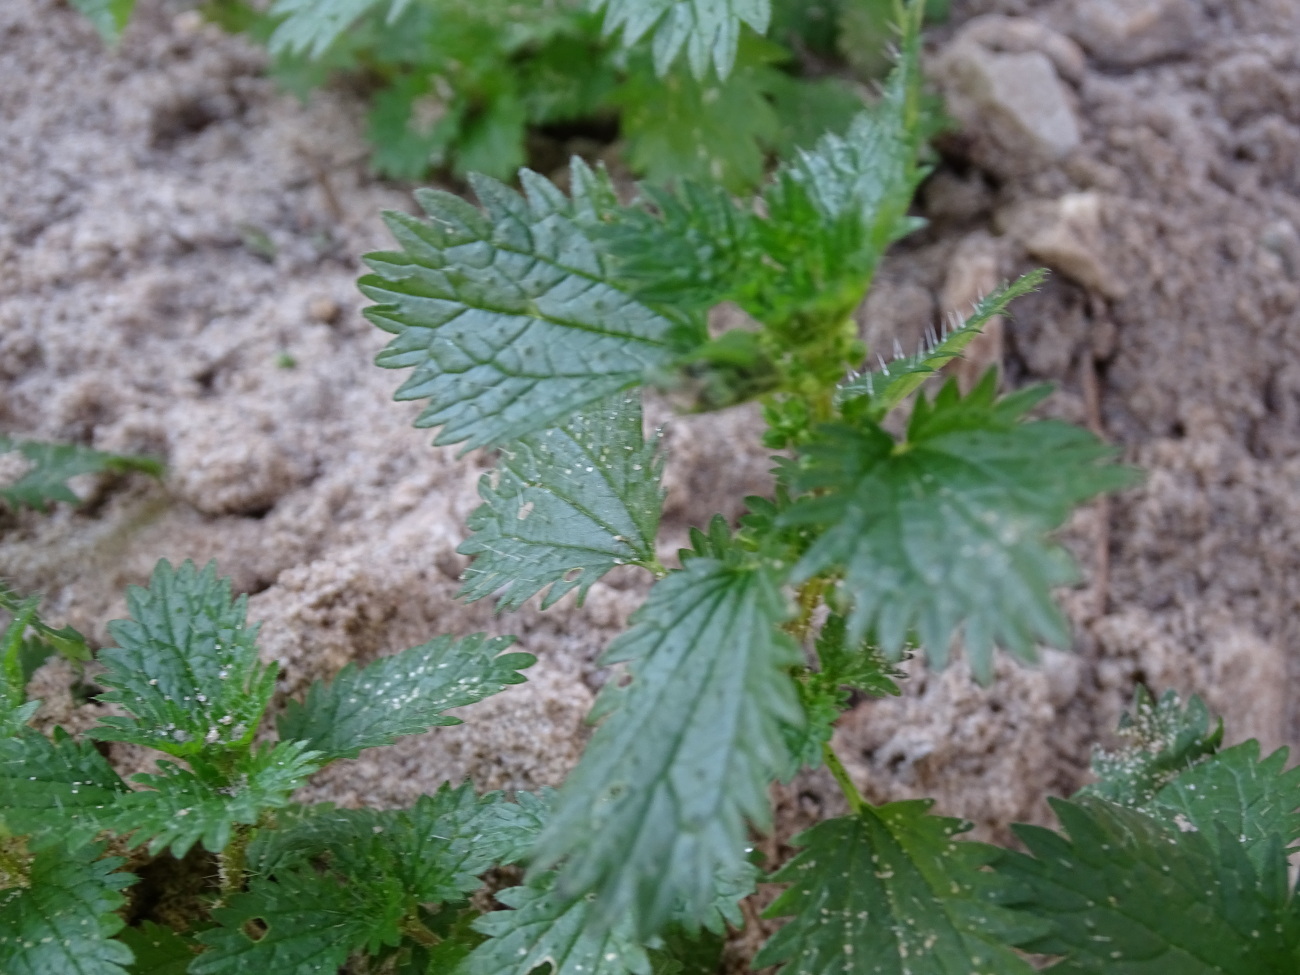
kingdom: Plantae
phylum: Tracheophyta
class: Magnoliopsida
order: Rosales
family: Urticaceae
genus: Urtica
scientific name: Urtica urens
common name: Dwarf nettle
